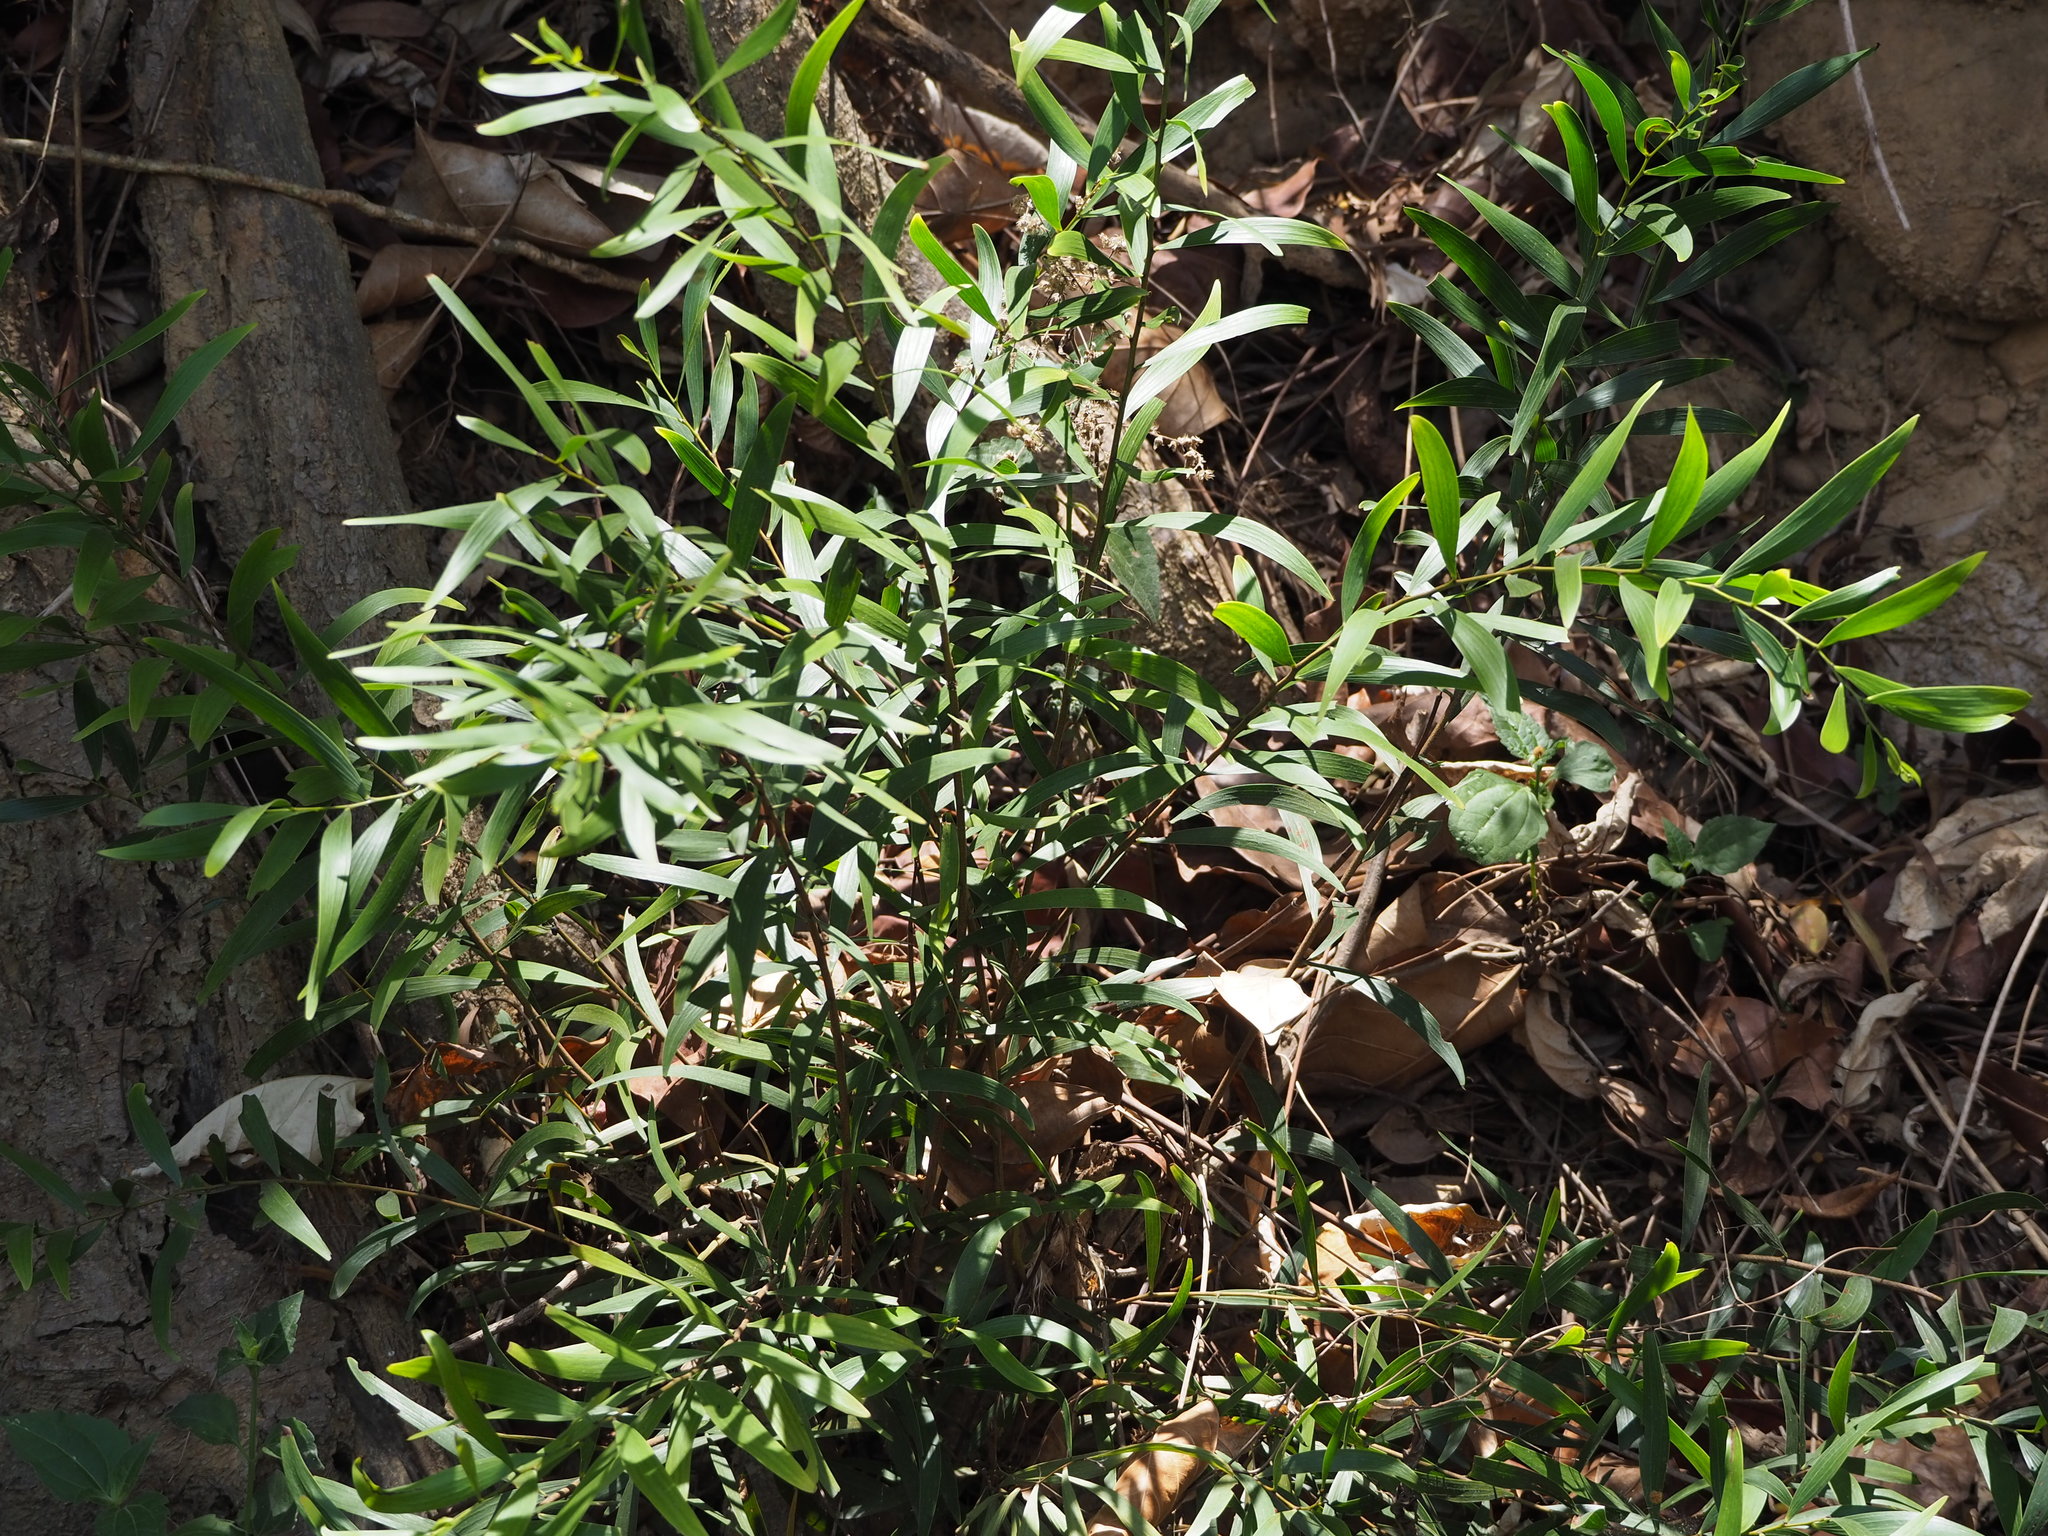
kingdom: Plantae
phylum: Tracheophyta
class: Magnoliopsida
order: Fabales
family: Fabaceae
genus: Acacia
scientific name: Acacia confusa
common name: Formosan koa
